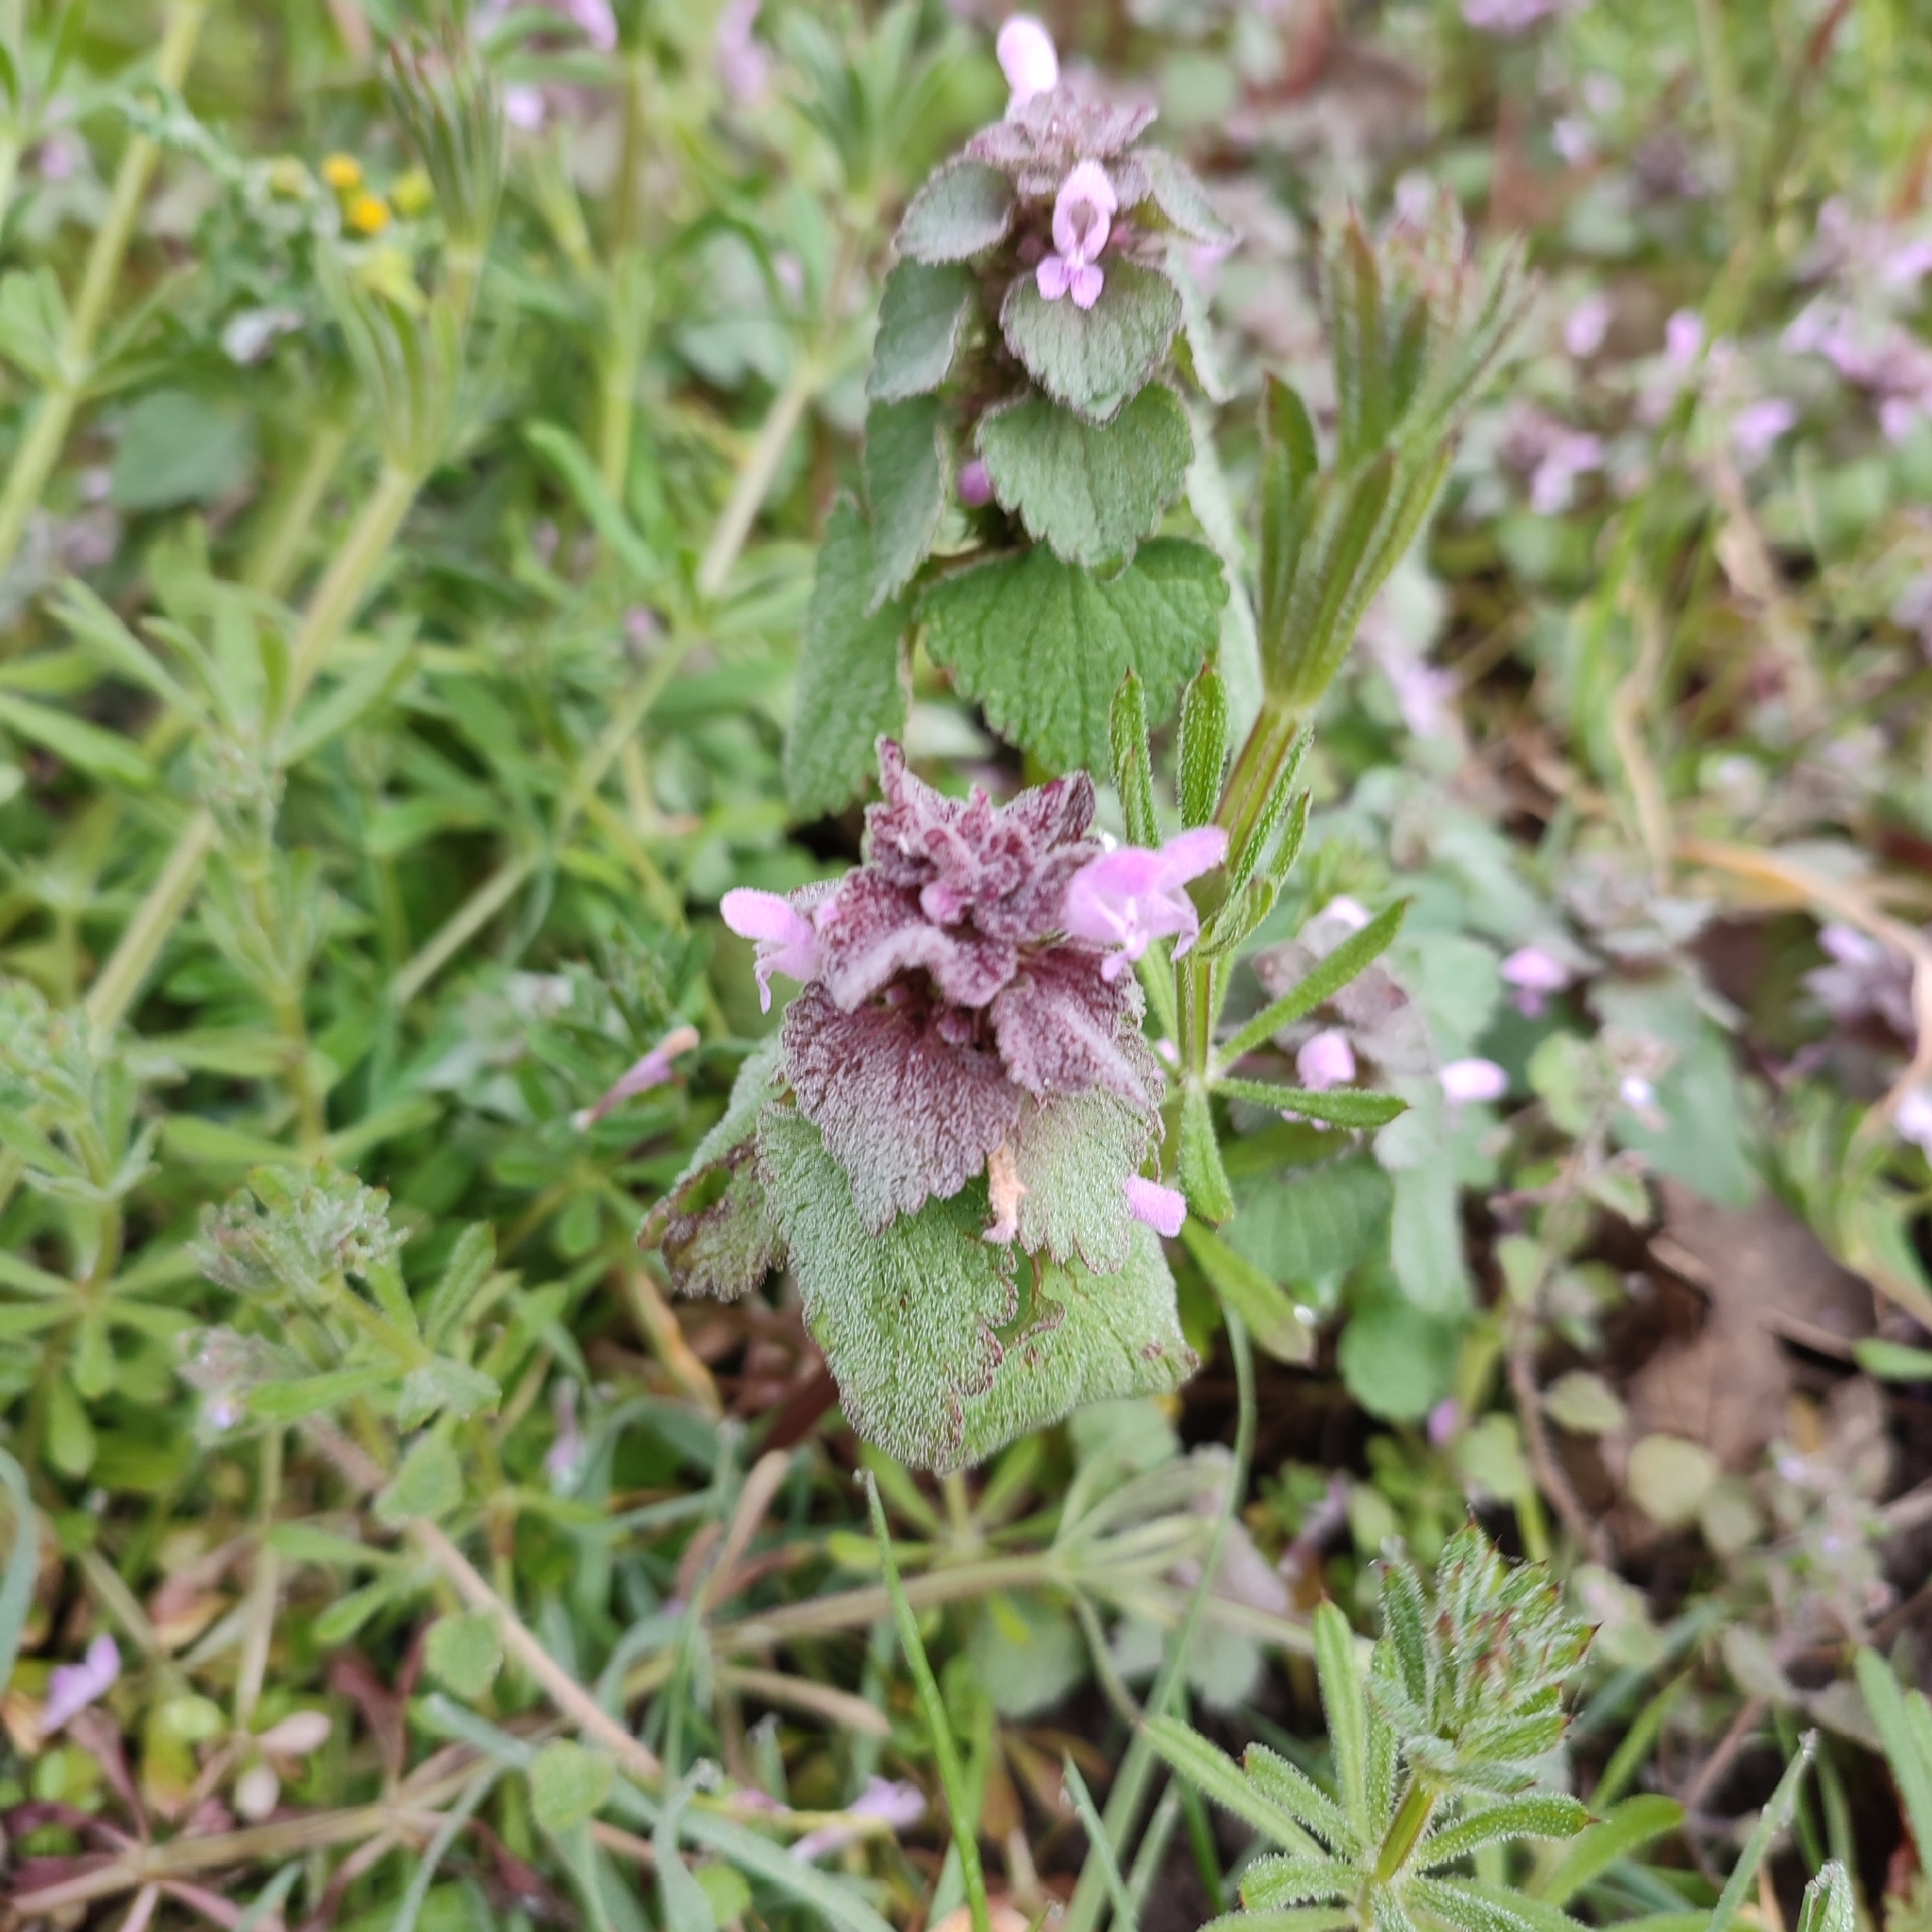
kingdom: Plantae
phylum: Tracheophyta
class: Magnoliopsida
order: Lamiales
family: Lamiaceae
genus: Lamium
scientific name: Lamium purpureum
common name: Red dead-nettle
